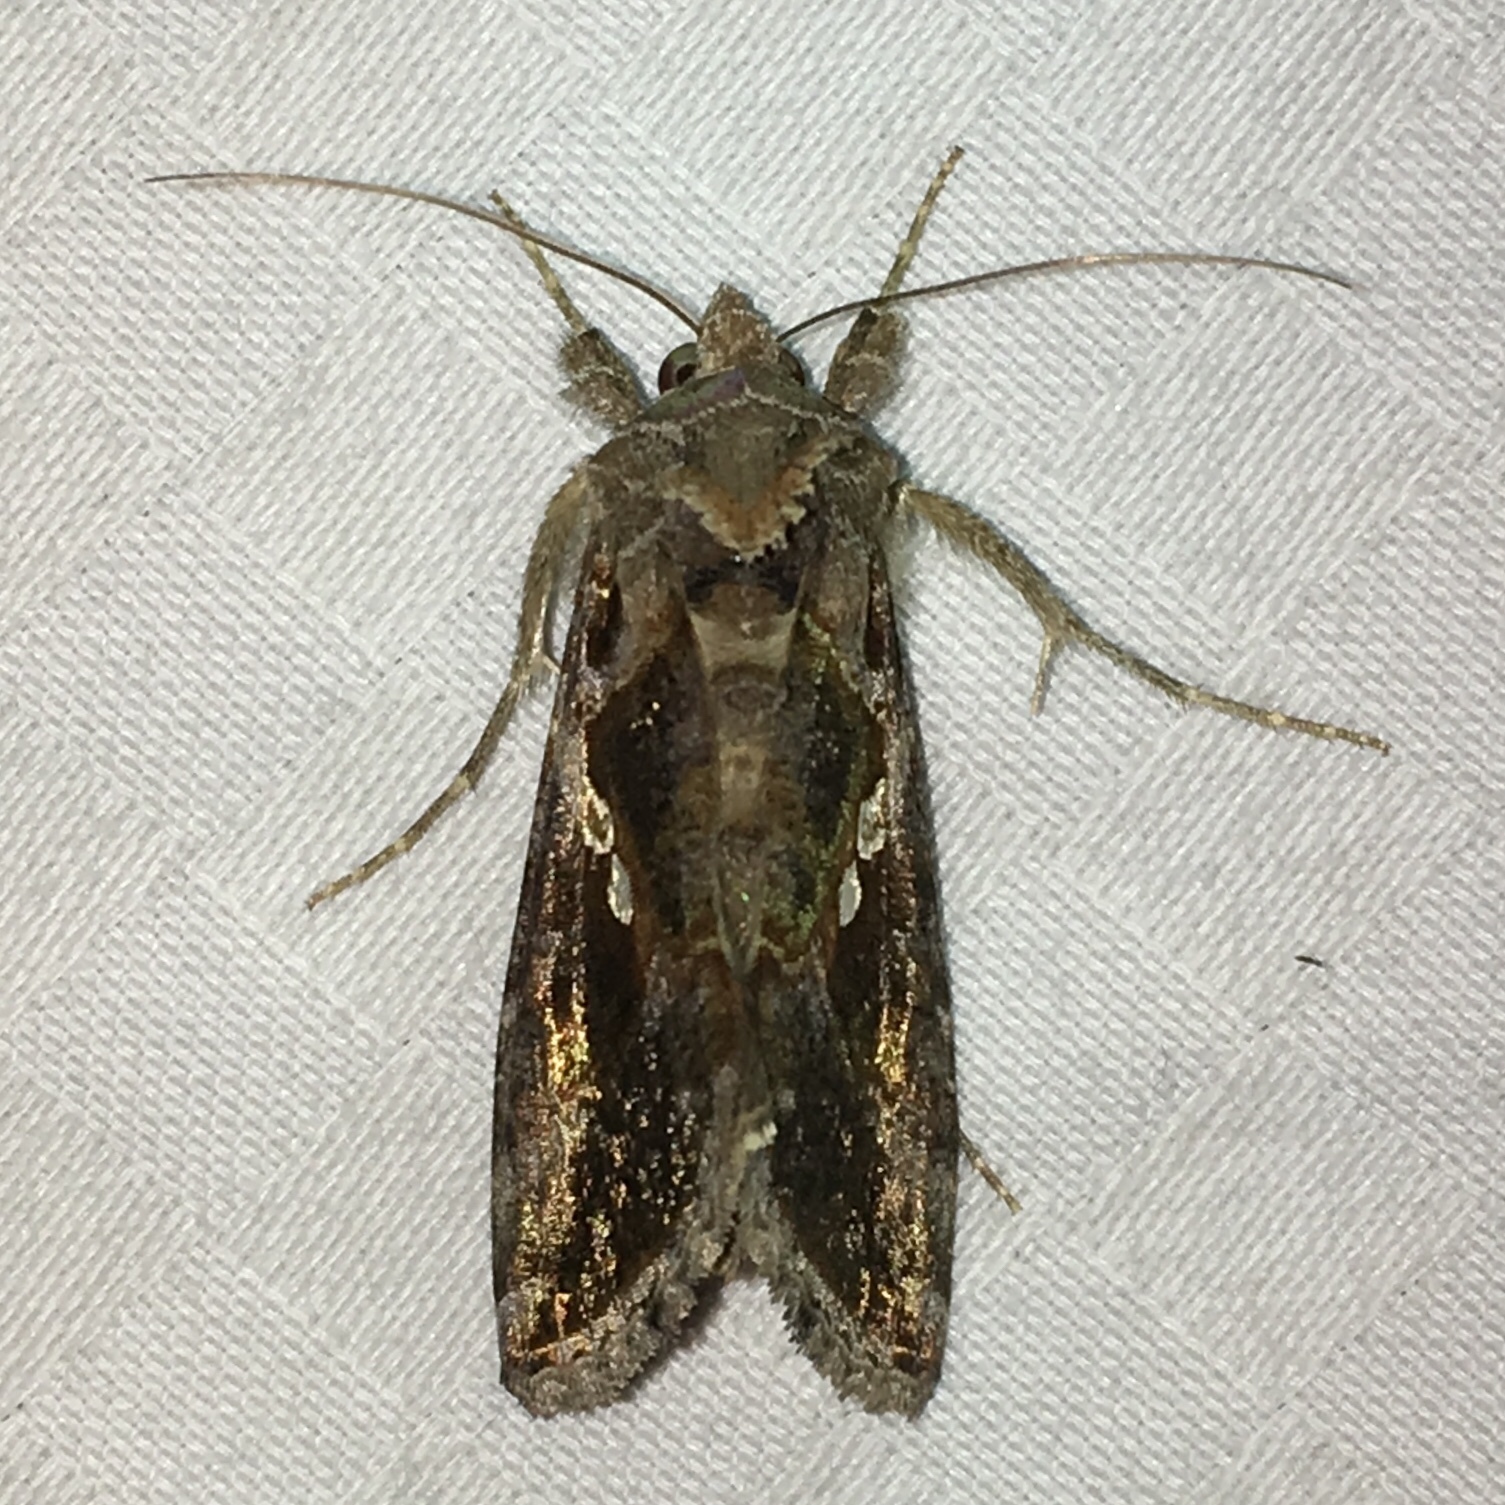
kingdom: Animalia
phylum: Arthropoda
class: Insecta
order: Lepidoptera
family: Noctuidae
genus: Chrysodeixis
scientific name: Chrysodeixis includens
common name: Cutworm moth
